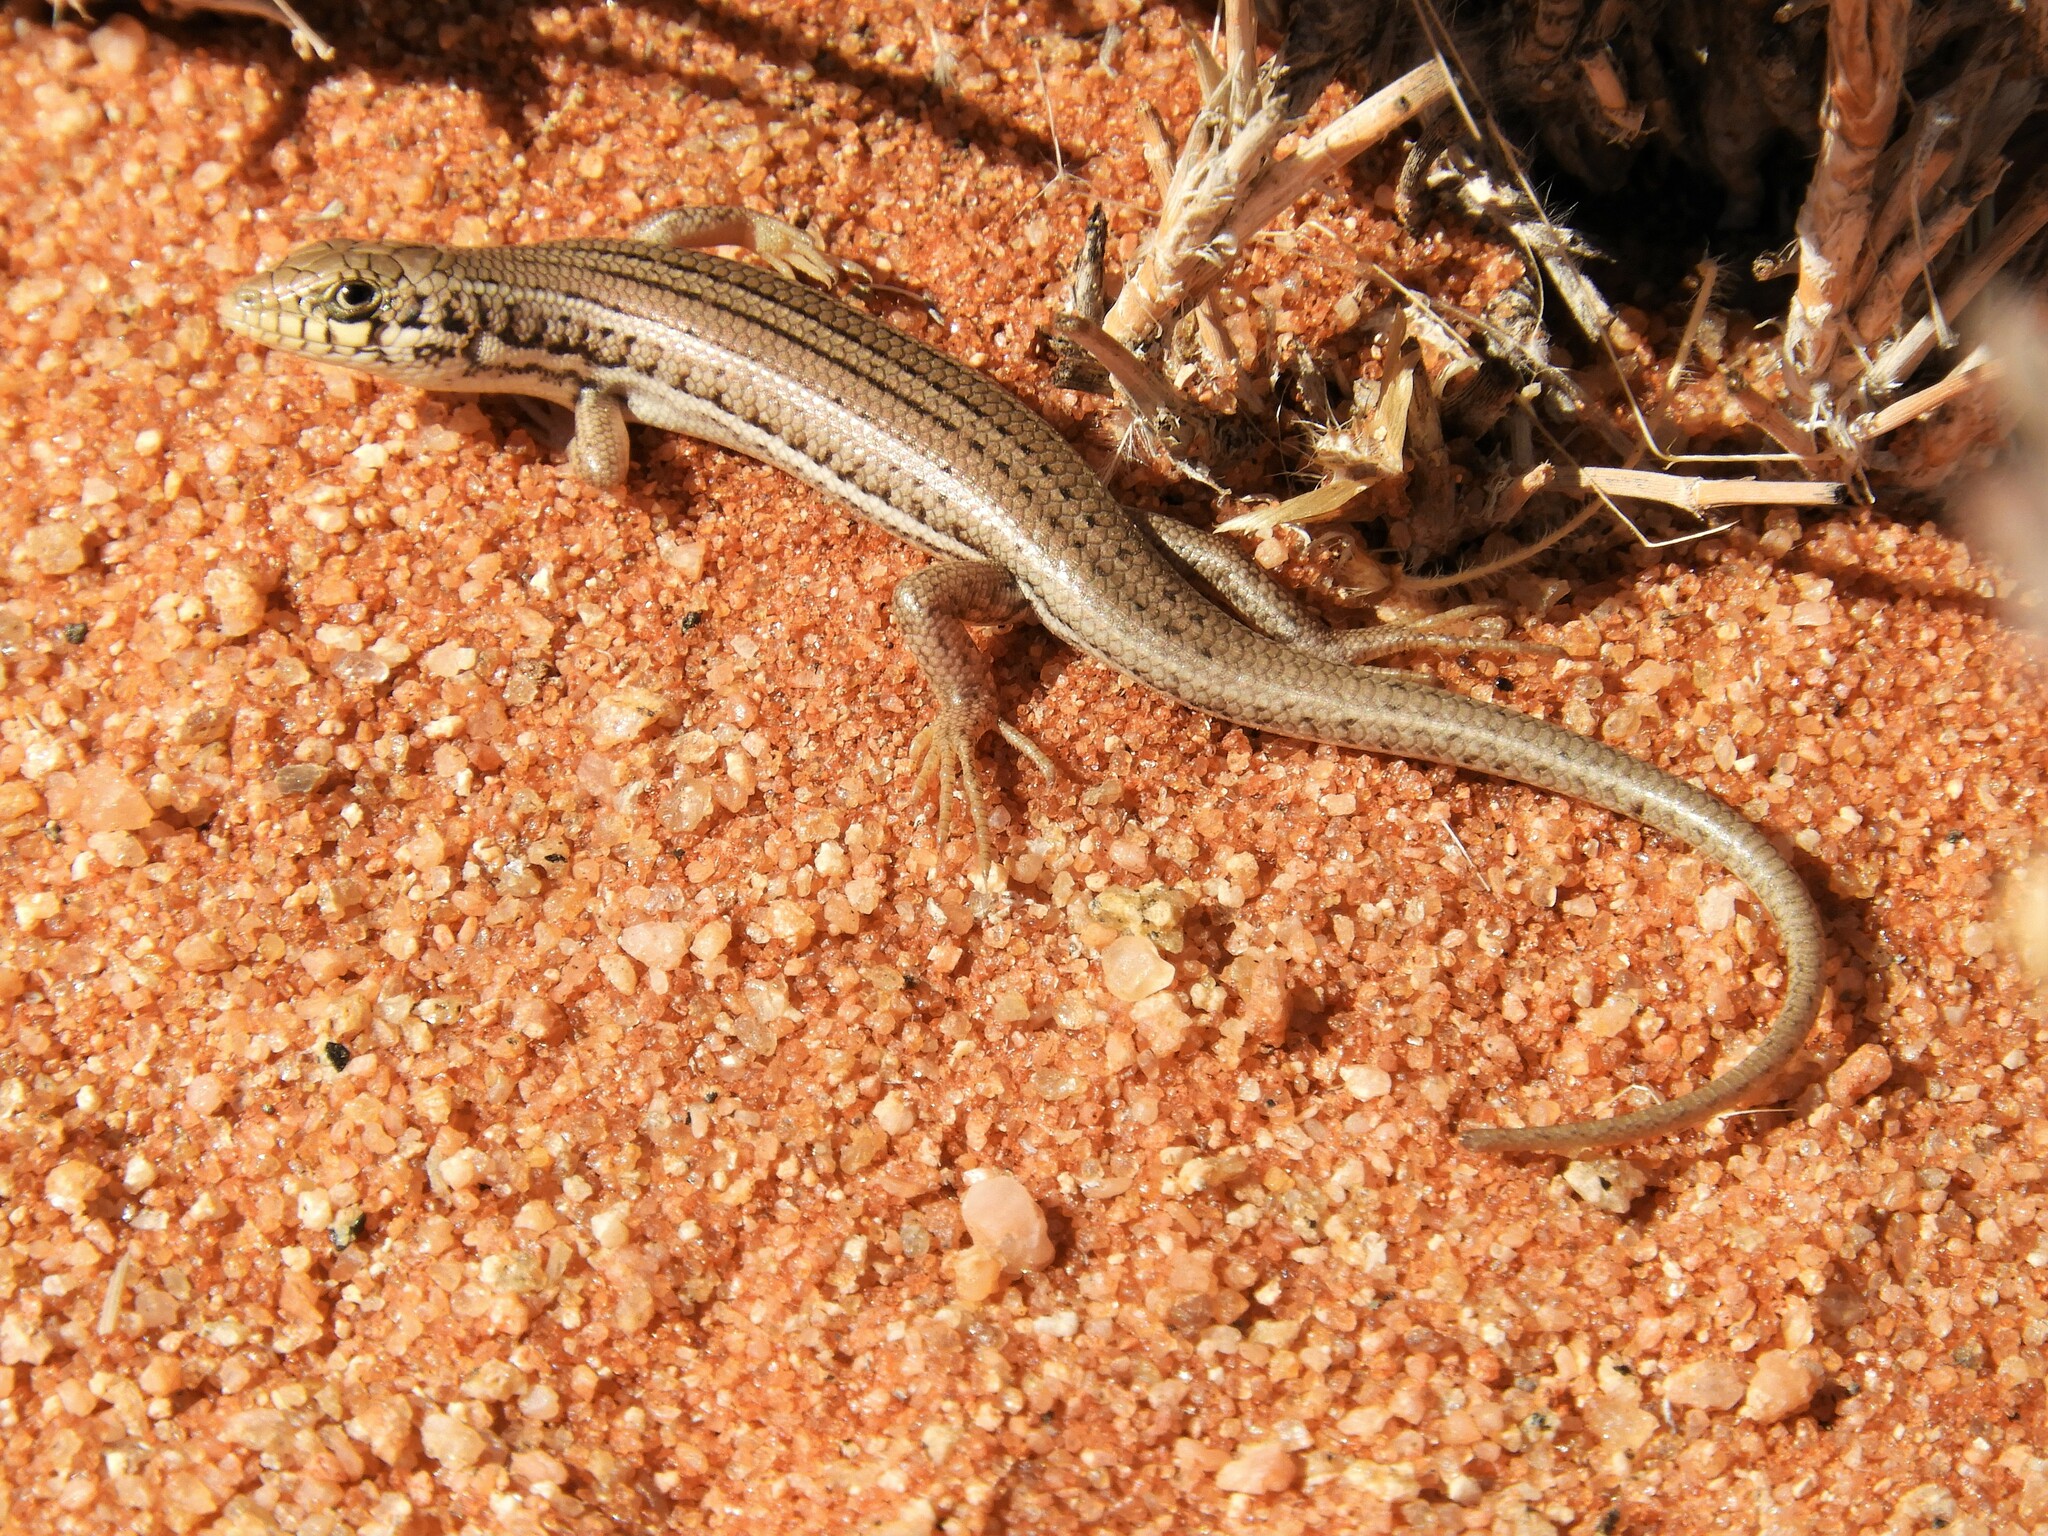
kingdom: Animalia
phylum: Chordata
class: Squamata
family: Scincidae
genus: Trachylepis
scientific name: Trachylepis occidentalis
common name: Western three-striped skink
